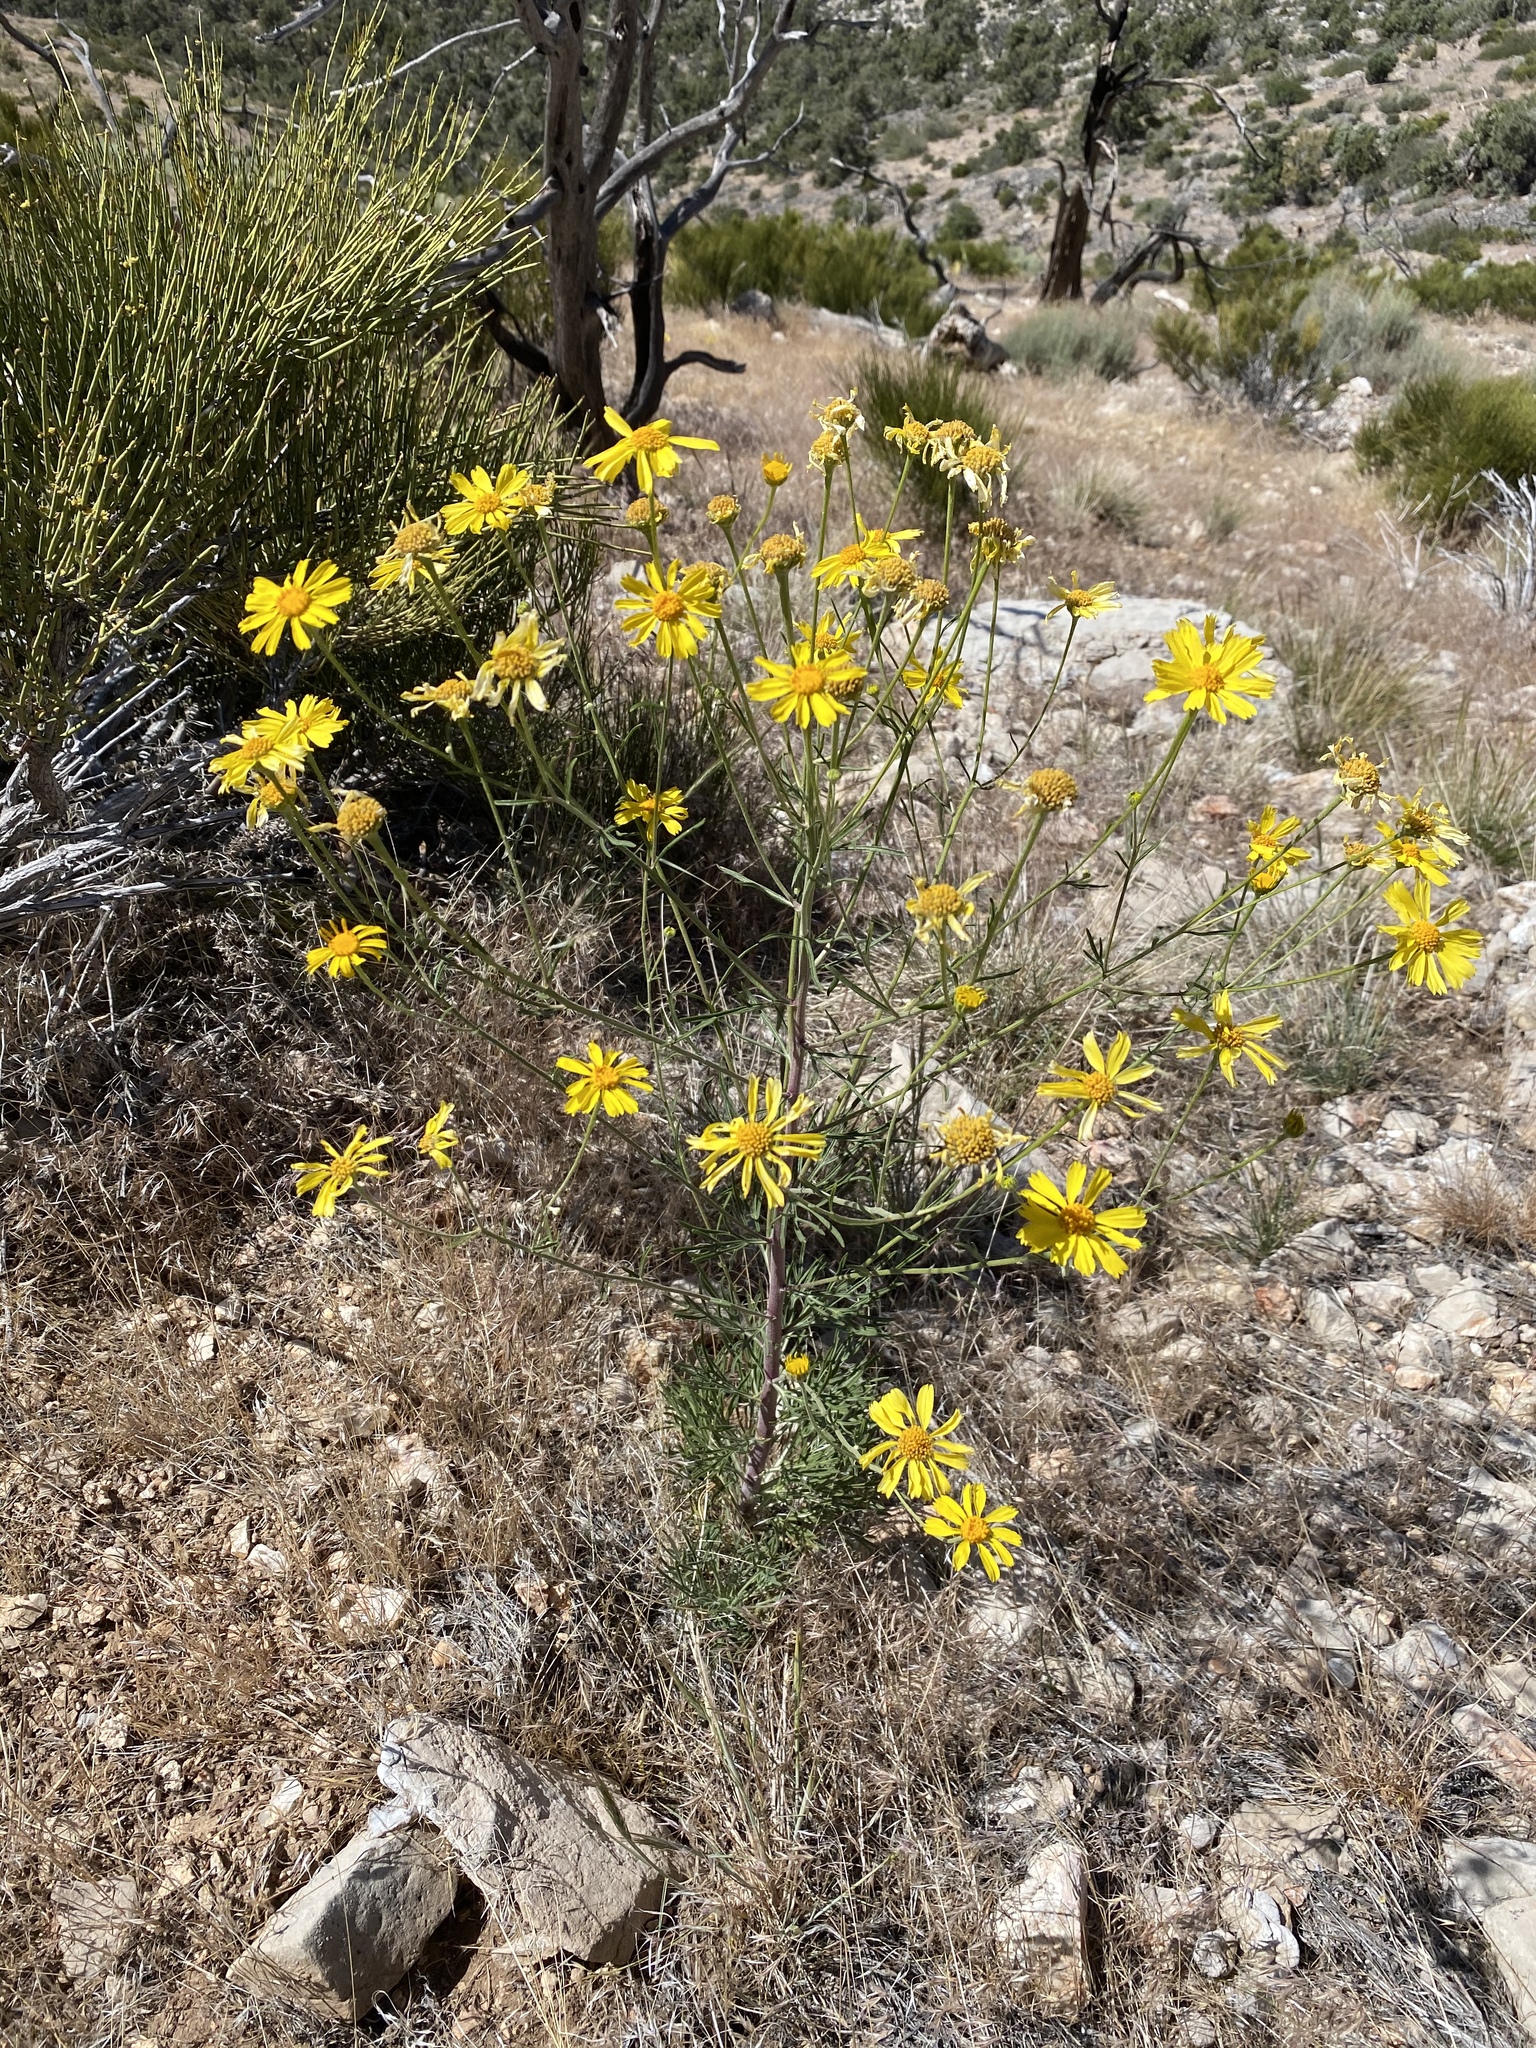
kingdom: Plantae
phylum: Tracheophyta
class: Magnoliopsida
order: Asterales
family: Asteraceae
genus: Hymenoxys
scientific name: Hymenoxys cooperi
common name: Cooper's bitterweed
